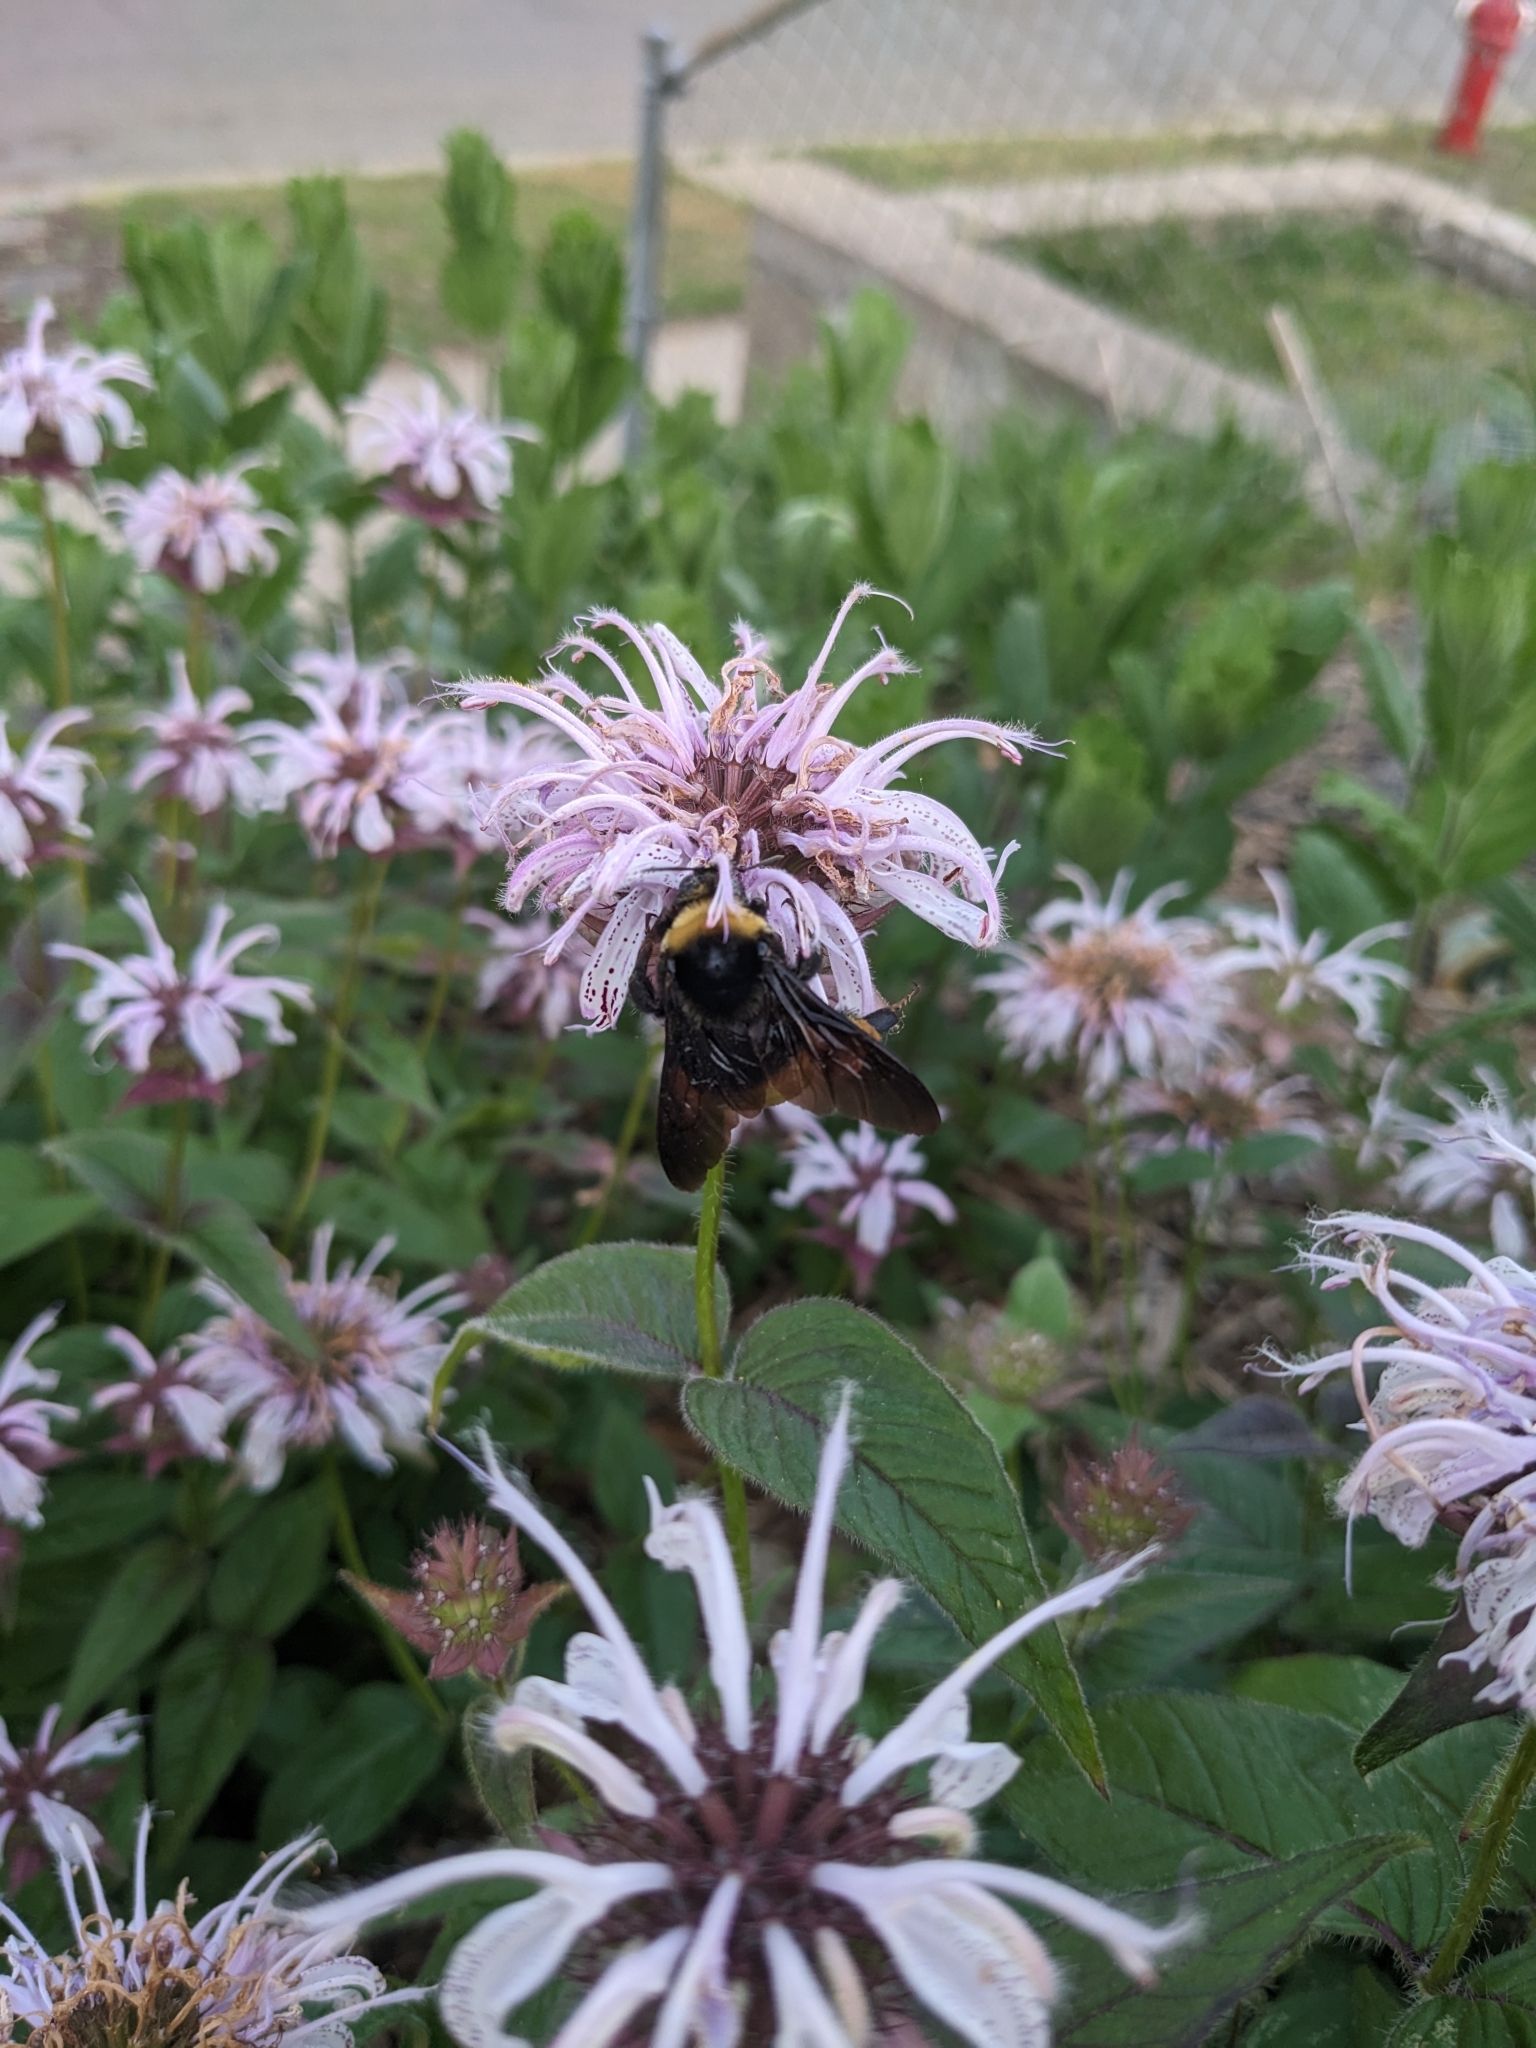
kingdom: Animalia
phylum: Arthropoda
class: Insecta
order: Hymenoptera
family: Apidae
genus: Bombus
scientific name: Bombus auricomus
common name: Black and gold bumble bee
